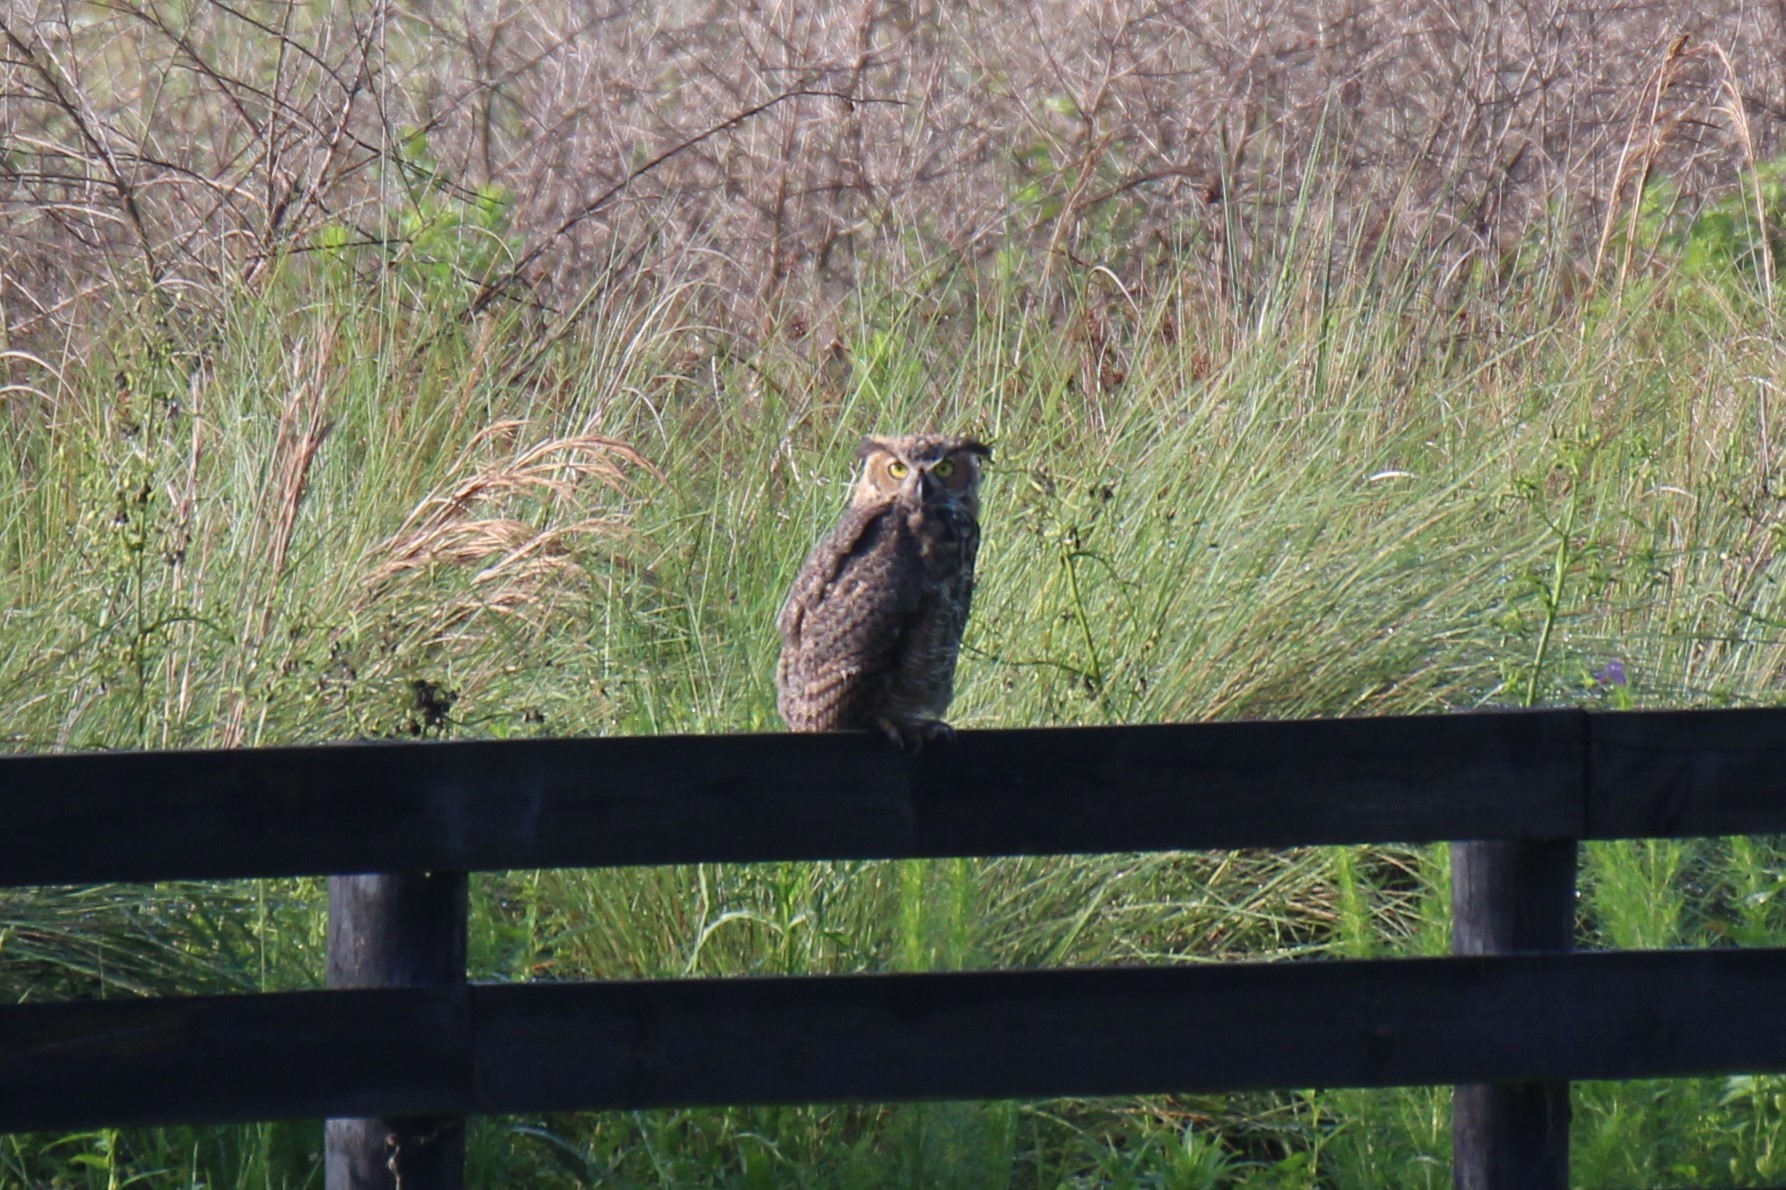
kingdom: Animalia
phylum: Chordata
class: Aves
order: Strigiformes
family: Strigidae
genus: Bubo
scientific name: Bubo virginianus
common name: Great horned owl
